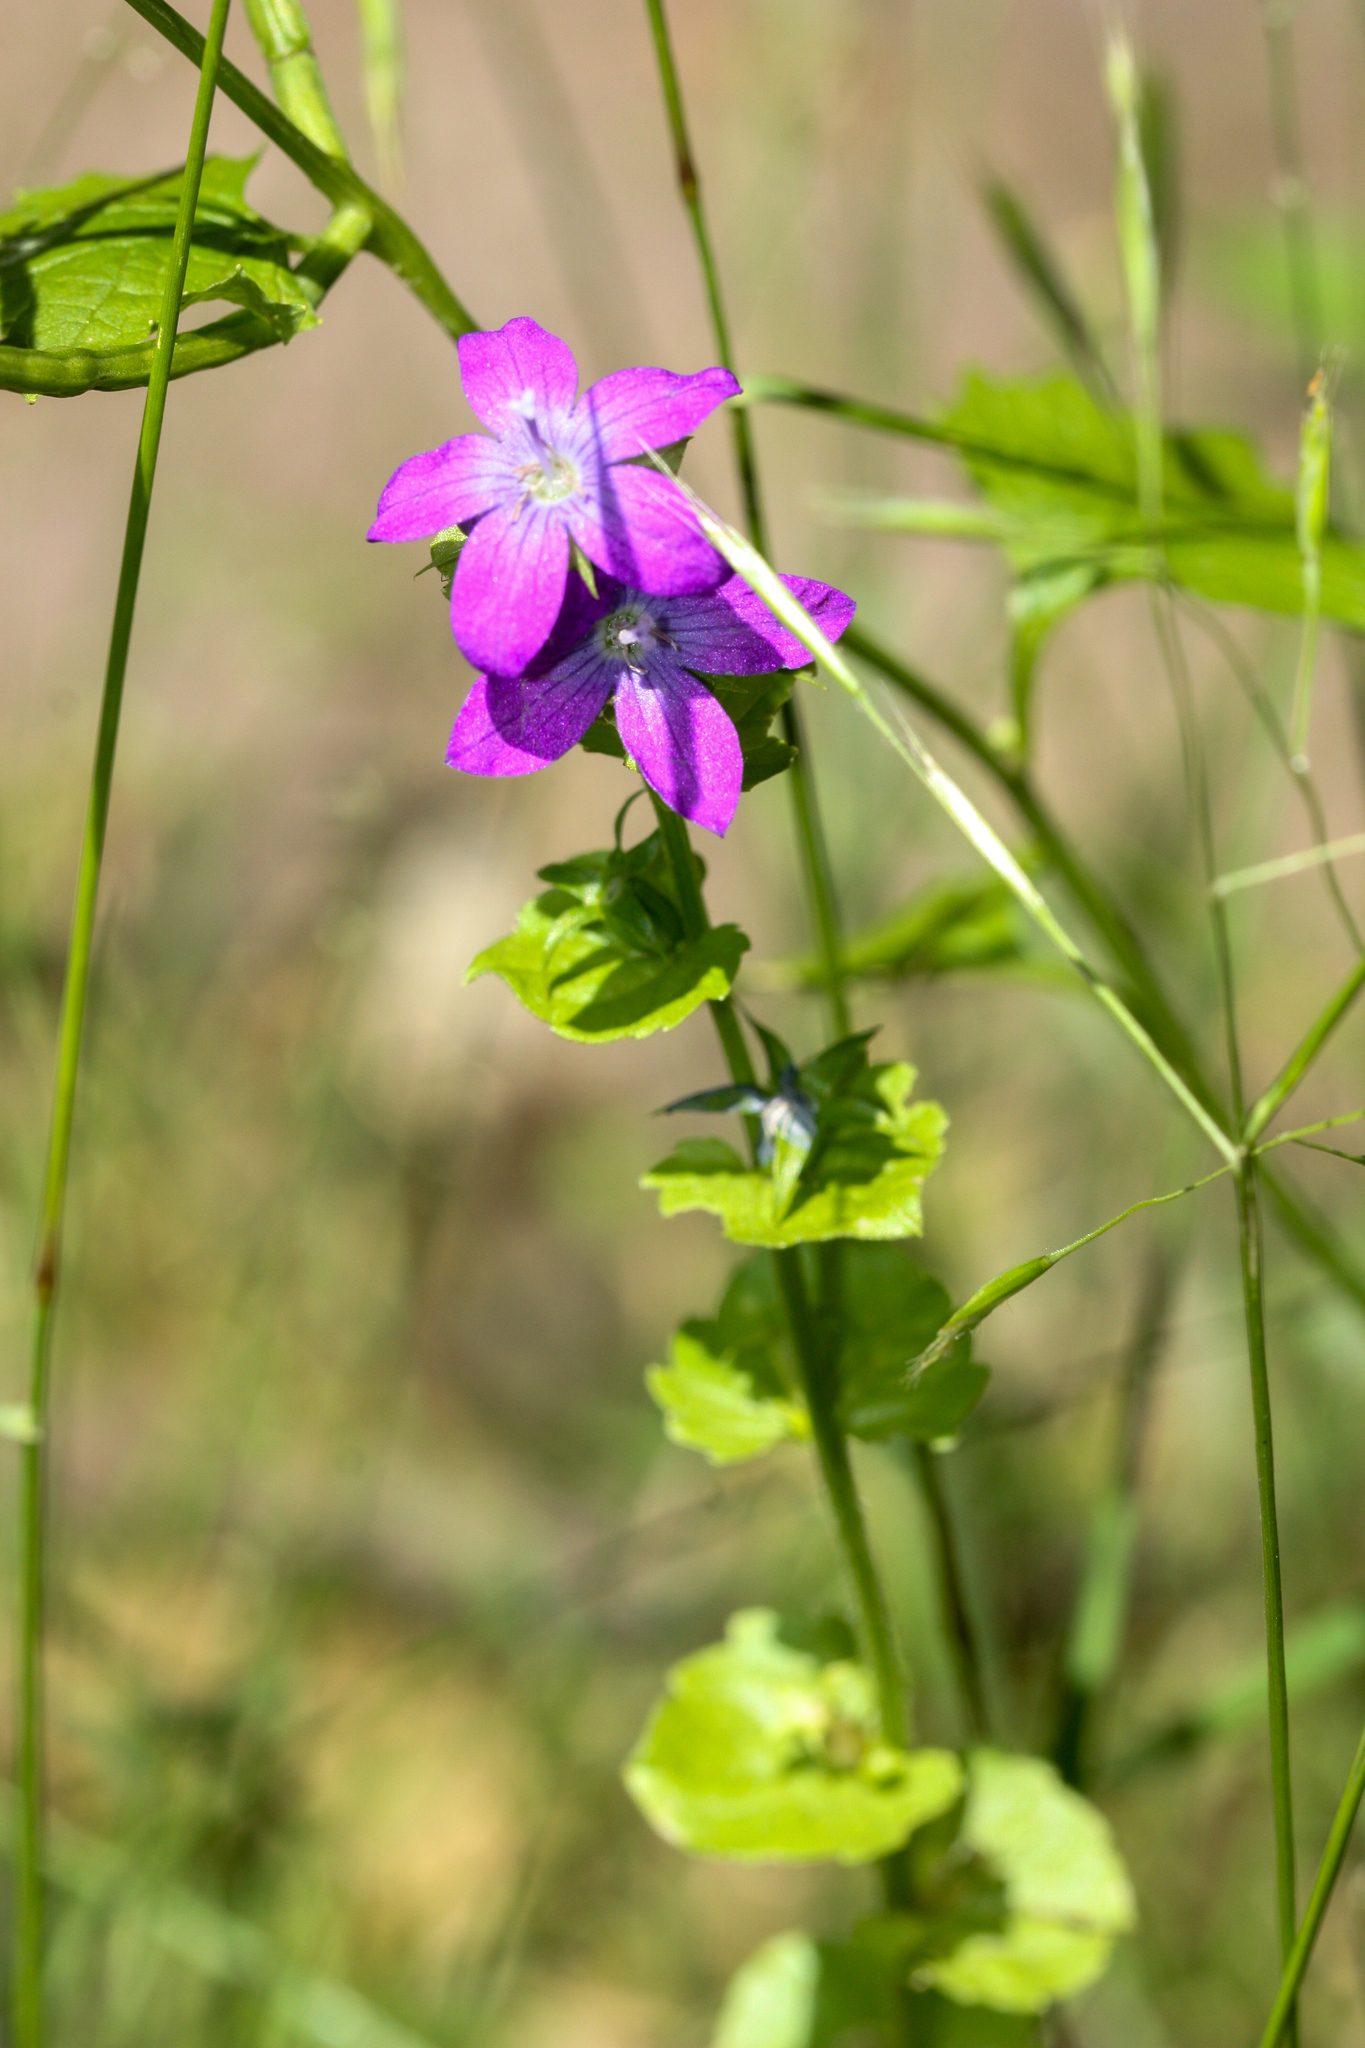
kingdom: Plantae
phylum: Tracheophyta
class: Magnoliopsida
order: Asterales
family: Campanulaceae
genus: Triodanis
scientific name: Triodanis perfoliata
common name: Clasping venus' looking-glass
